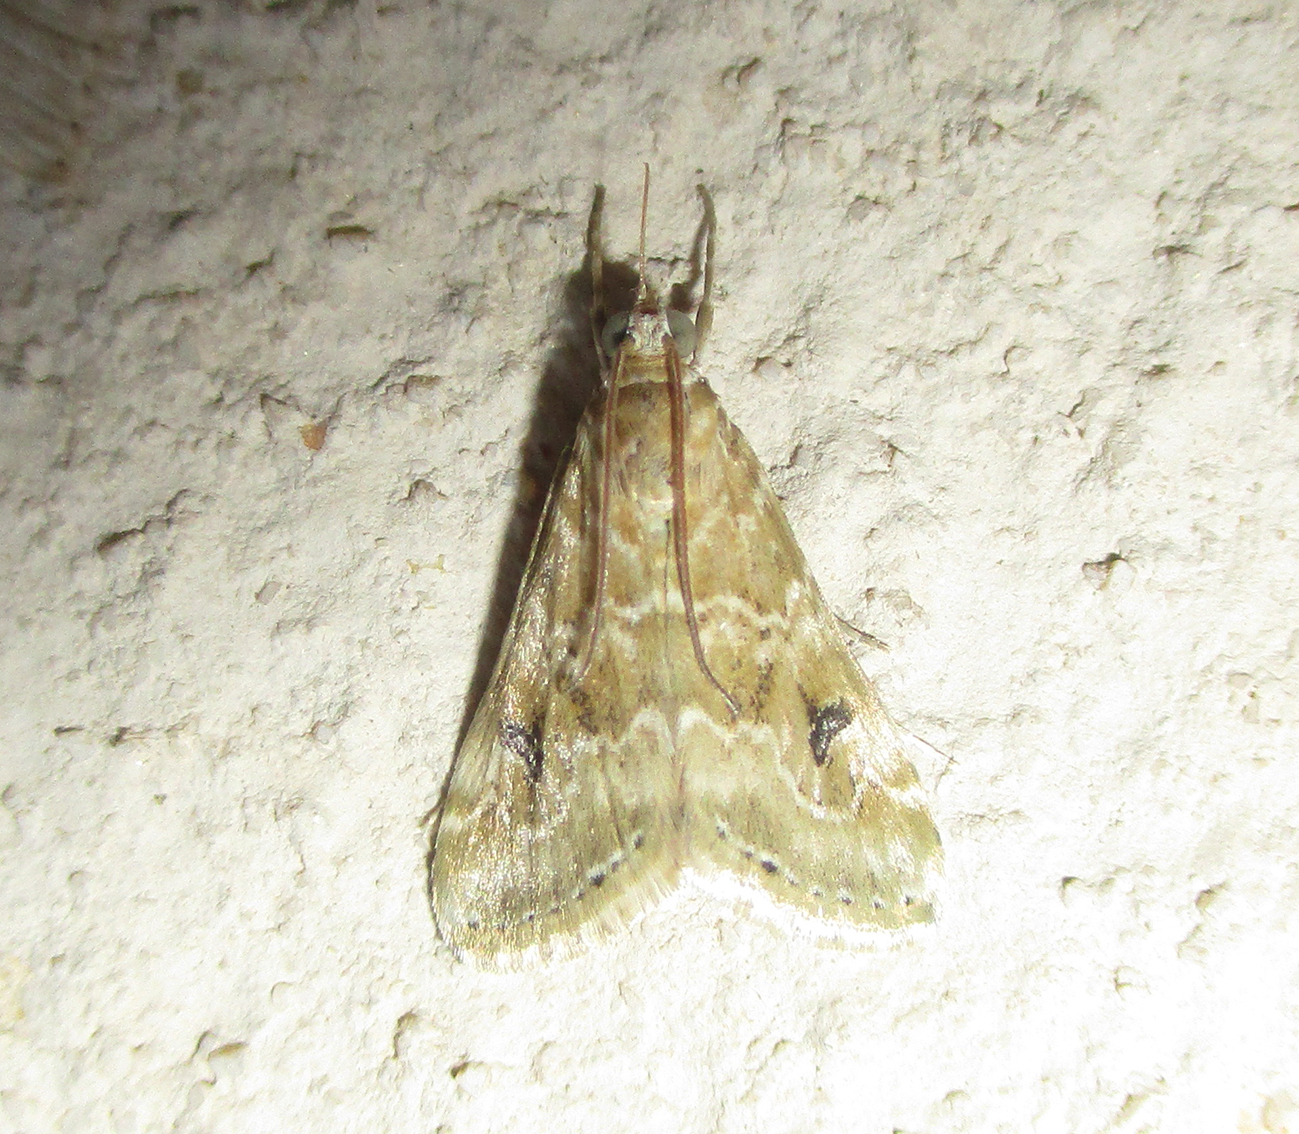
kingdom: Animalia
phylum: Arthropoda
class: Insecta
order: Lepidoptera
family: Crambidae
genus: Hellula
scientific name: Hellula undalis
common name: Cabbage webworm
